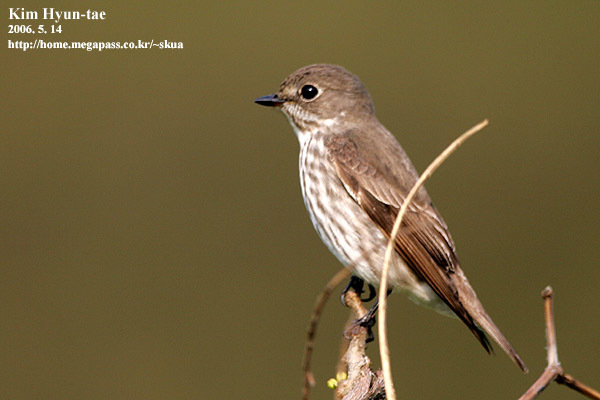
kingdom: Animalia
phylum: Chordata
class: Aves
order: Passeriformes
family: Muscicapidae
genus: Muscicapa
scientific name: Muscicapa griseisticta
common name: Gray-streaked flycatcher
